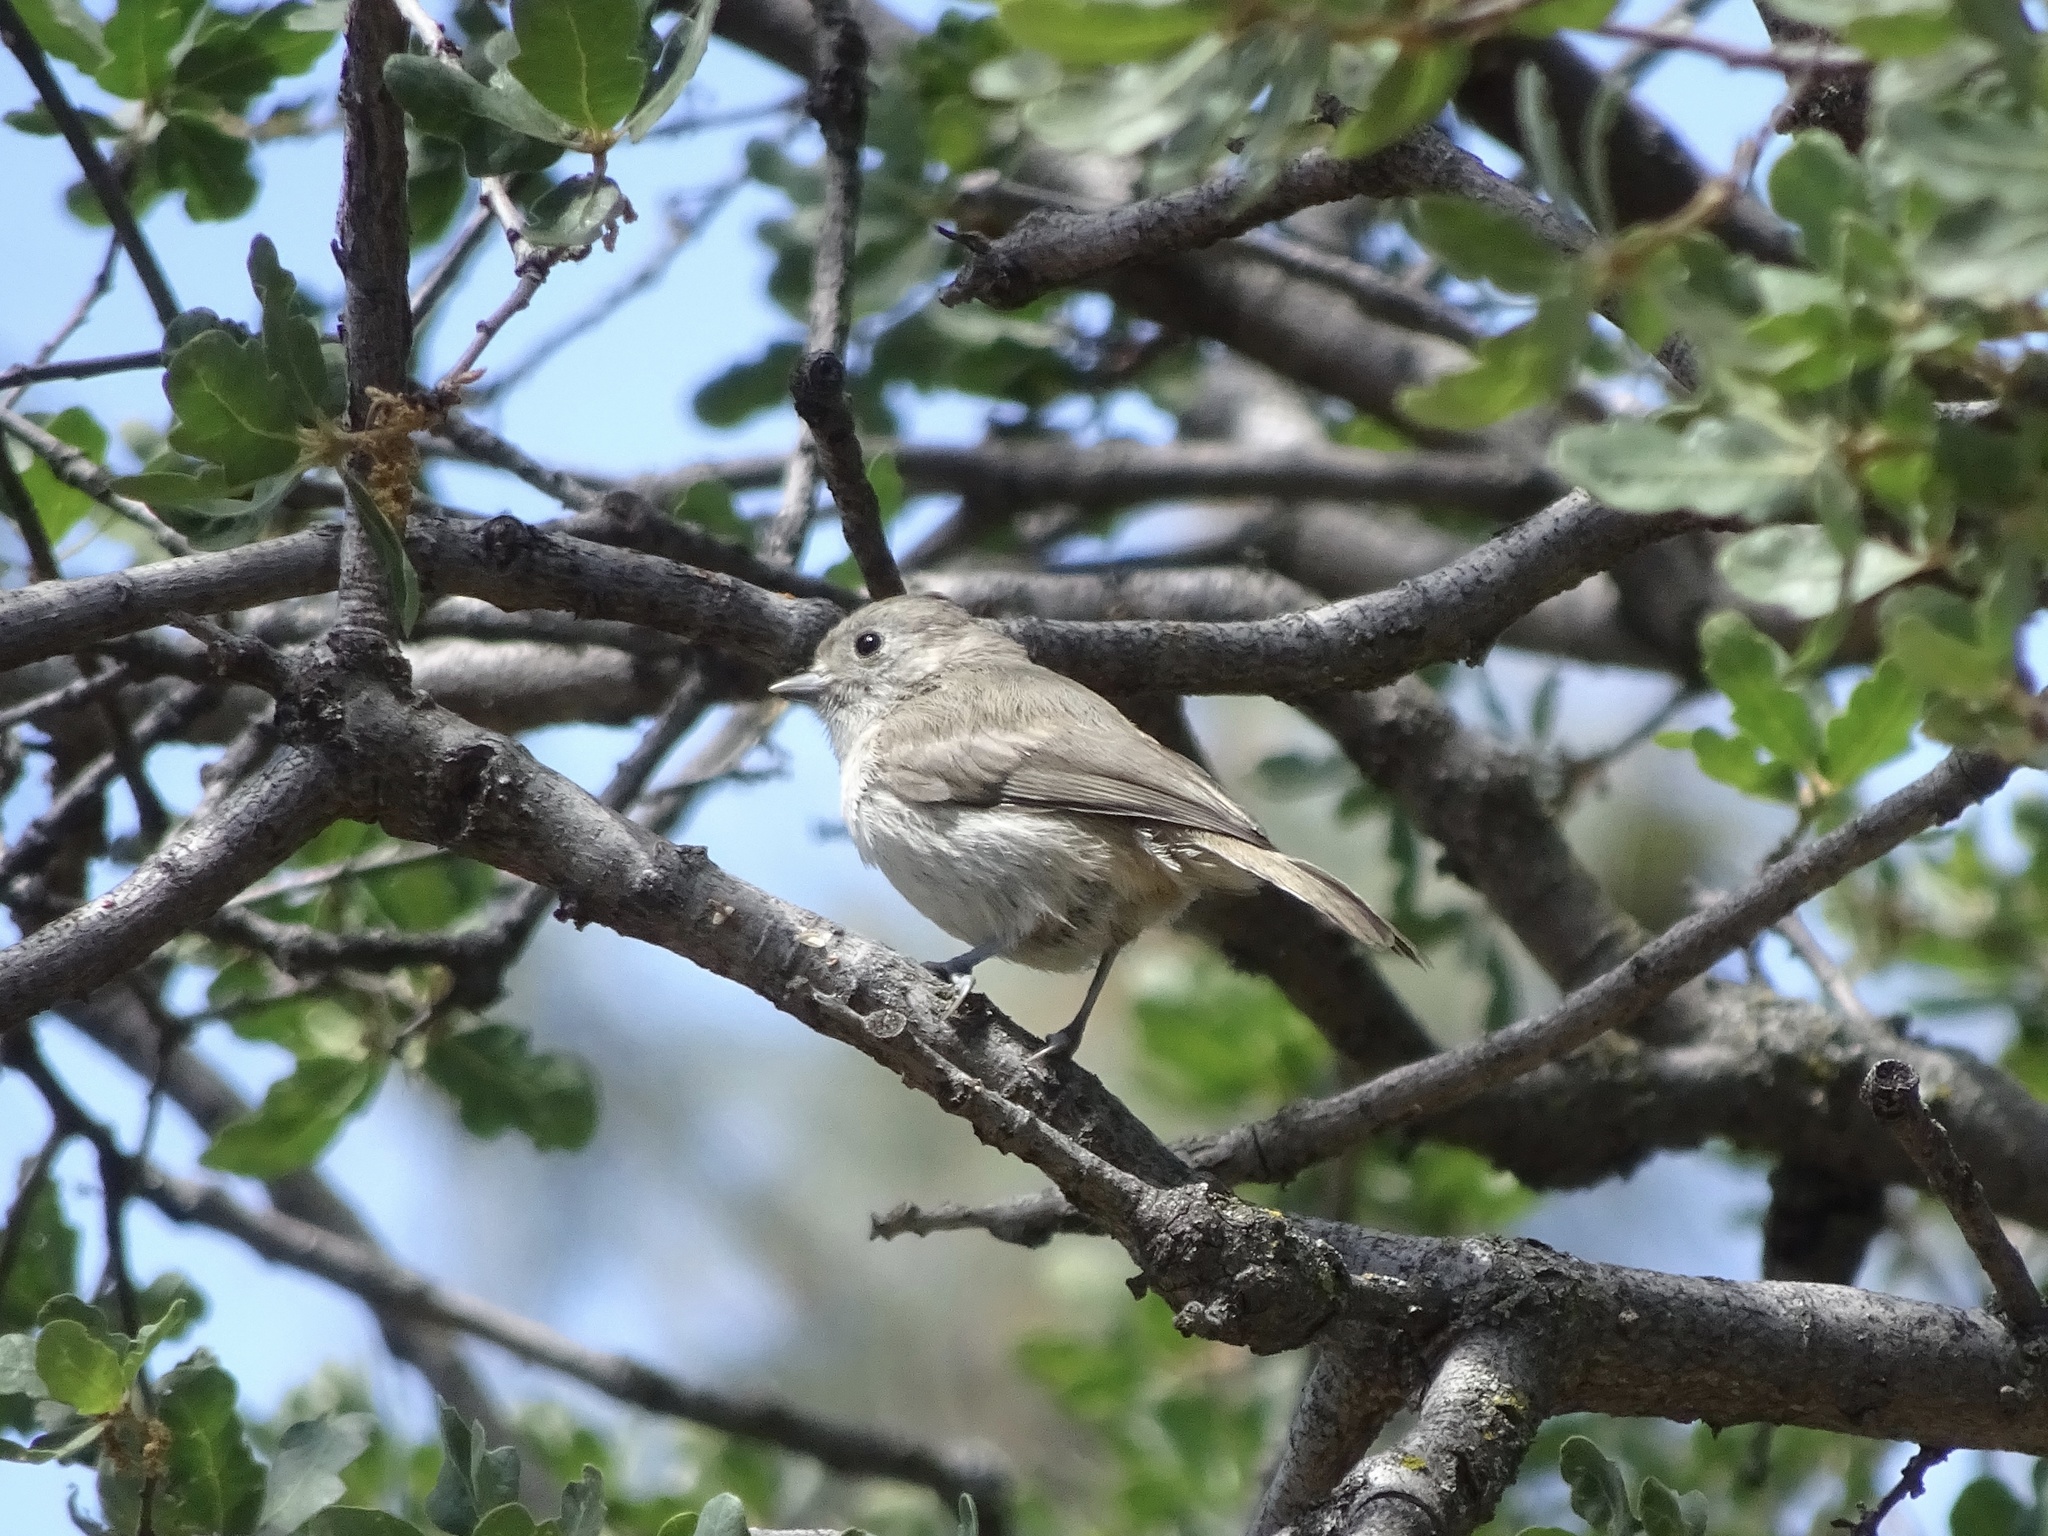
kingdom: Animalia
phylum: Chordata
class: Aves
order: Passeriformes
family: Paridae
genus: Baeolophus
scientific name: Baeolophus inornatus
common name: Oak titmouse
